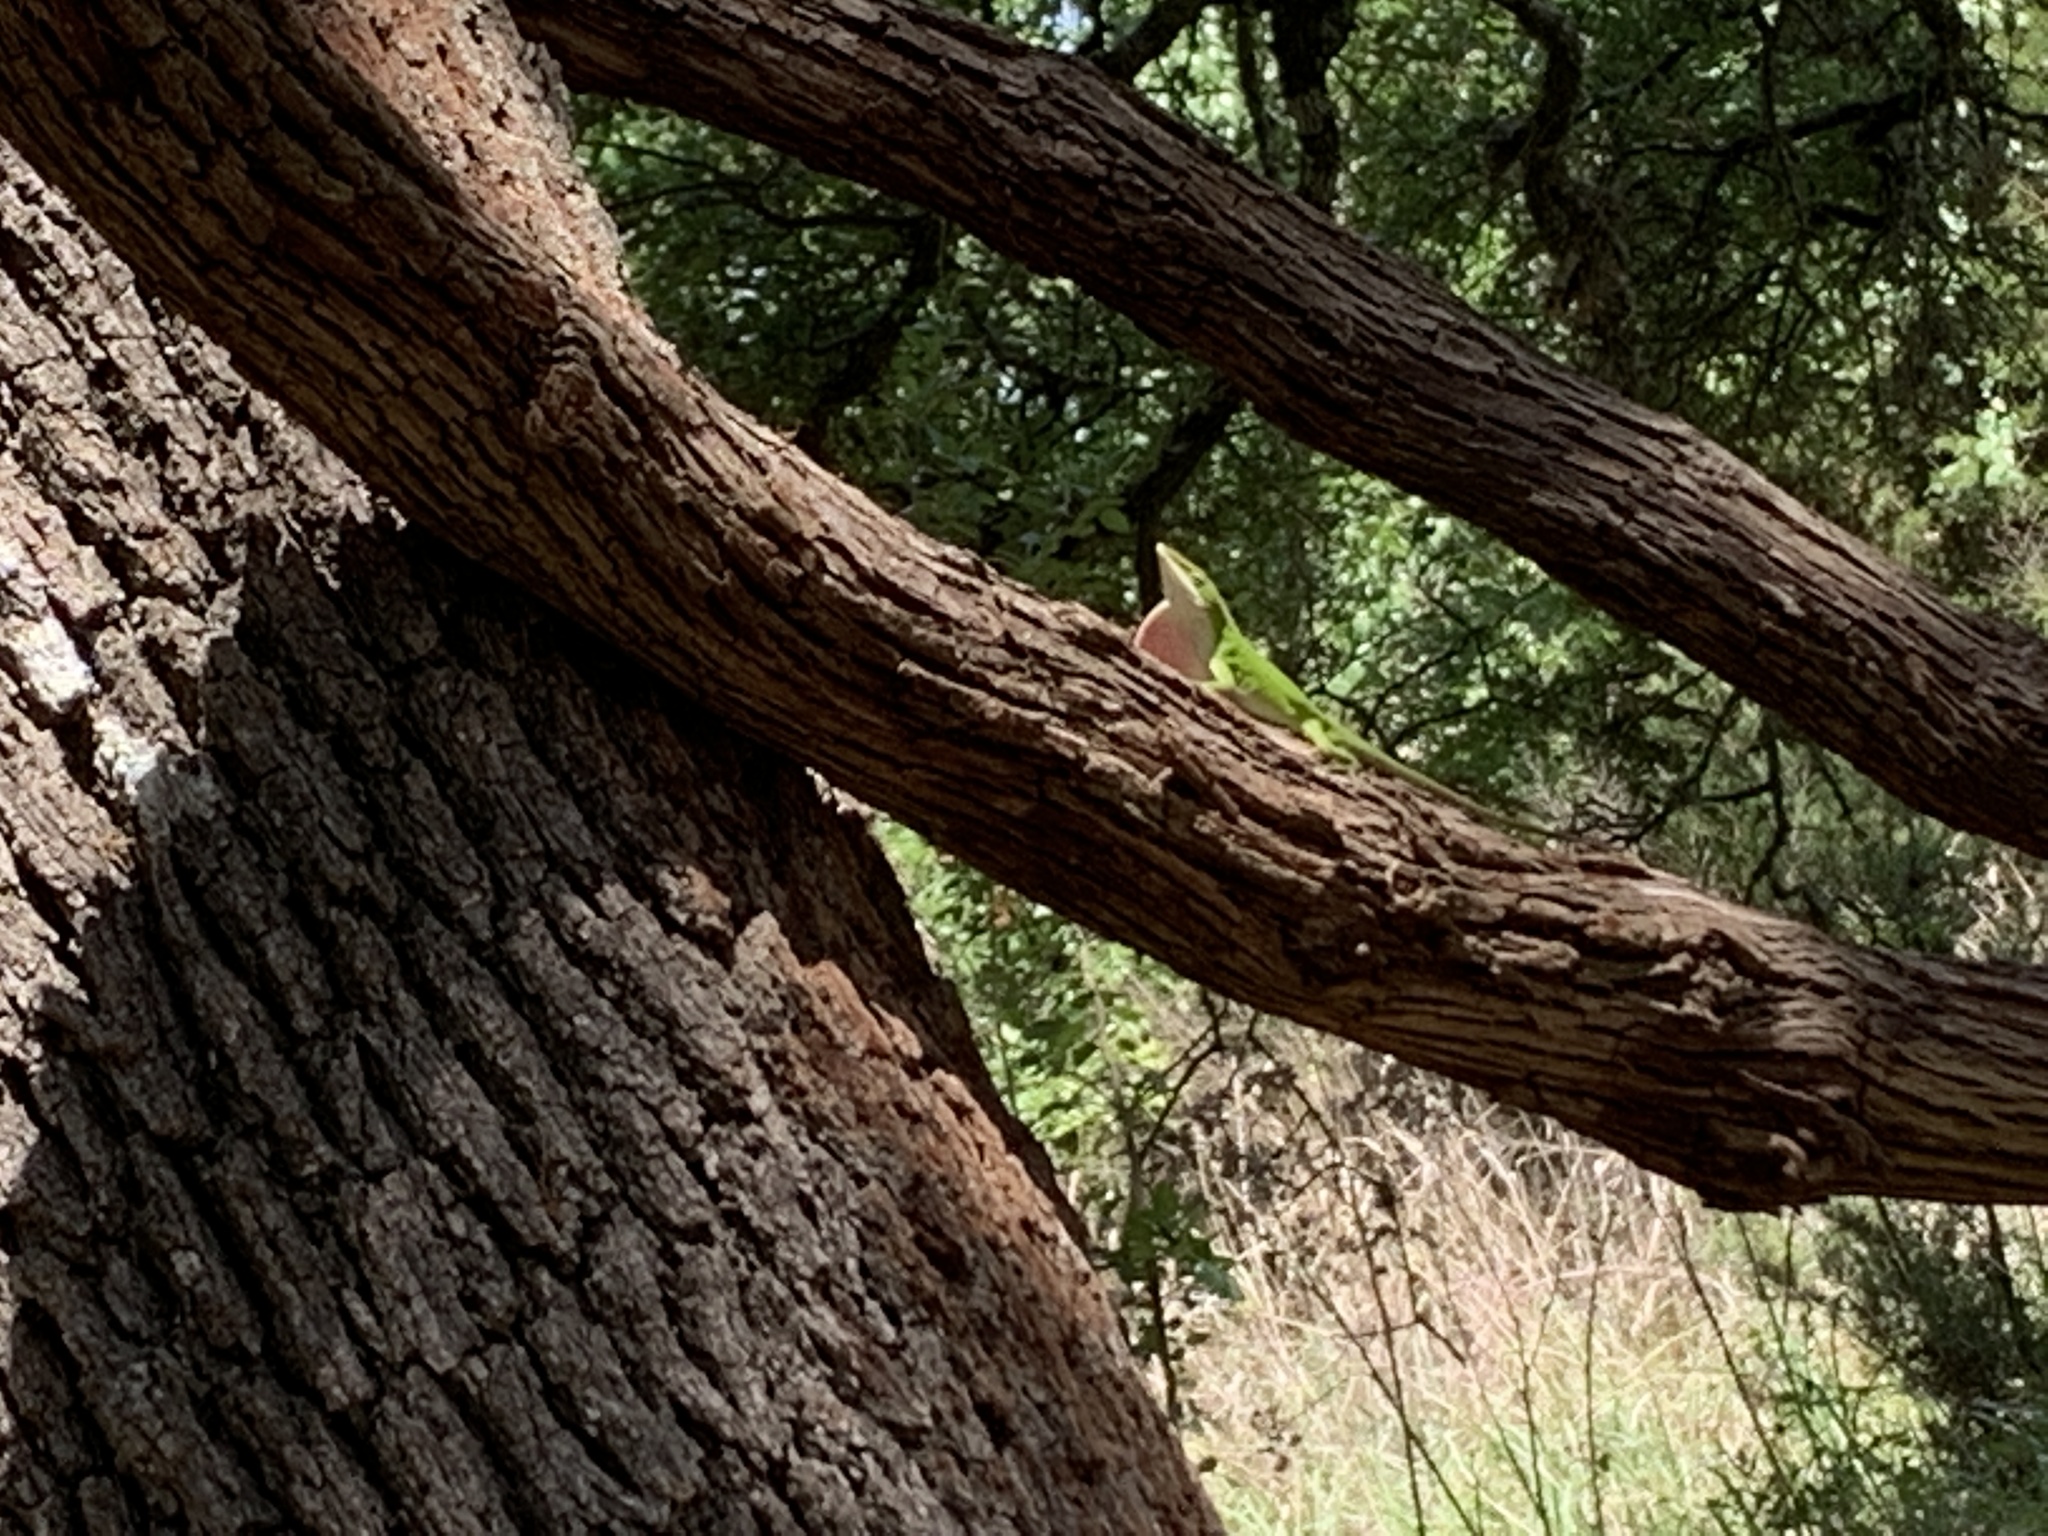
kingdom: Animalia
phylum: Chordata
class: Squamata
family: Dactyloidae
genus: Anolis
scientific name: Anolis carolinensis
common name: Green anole
